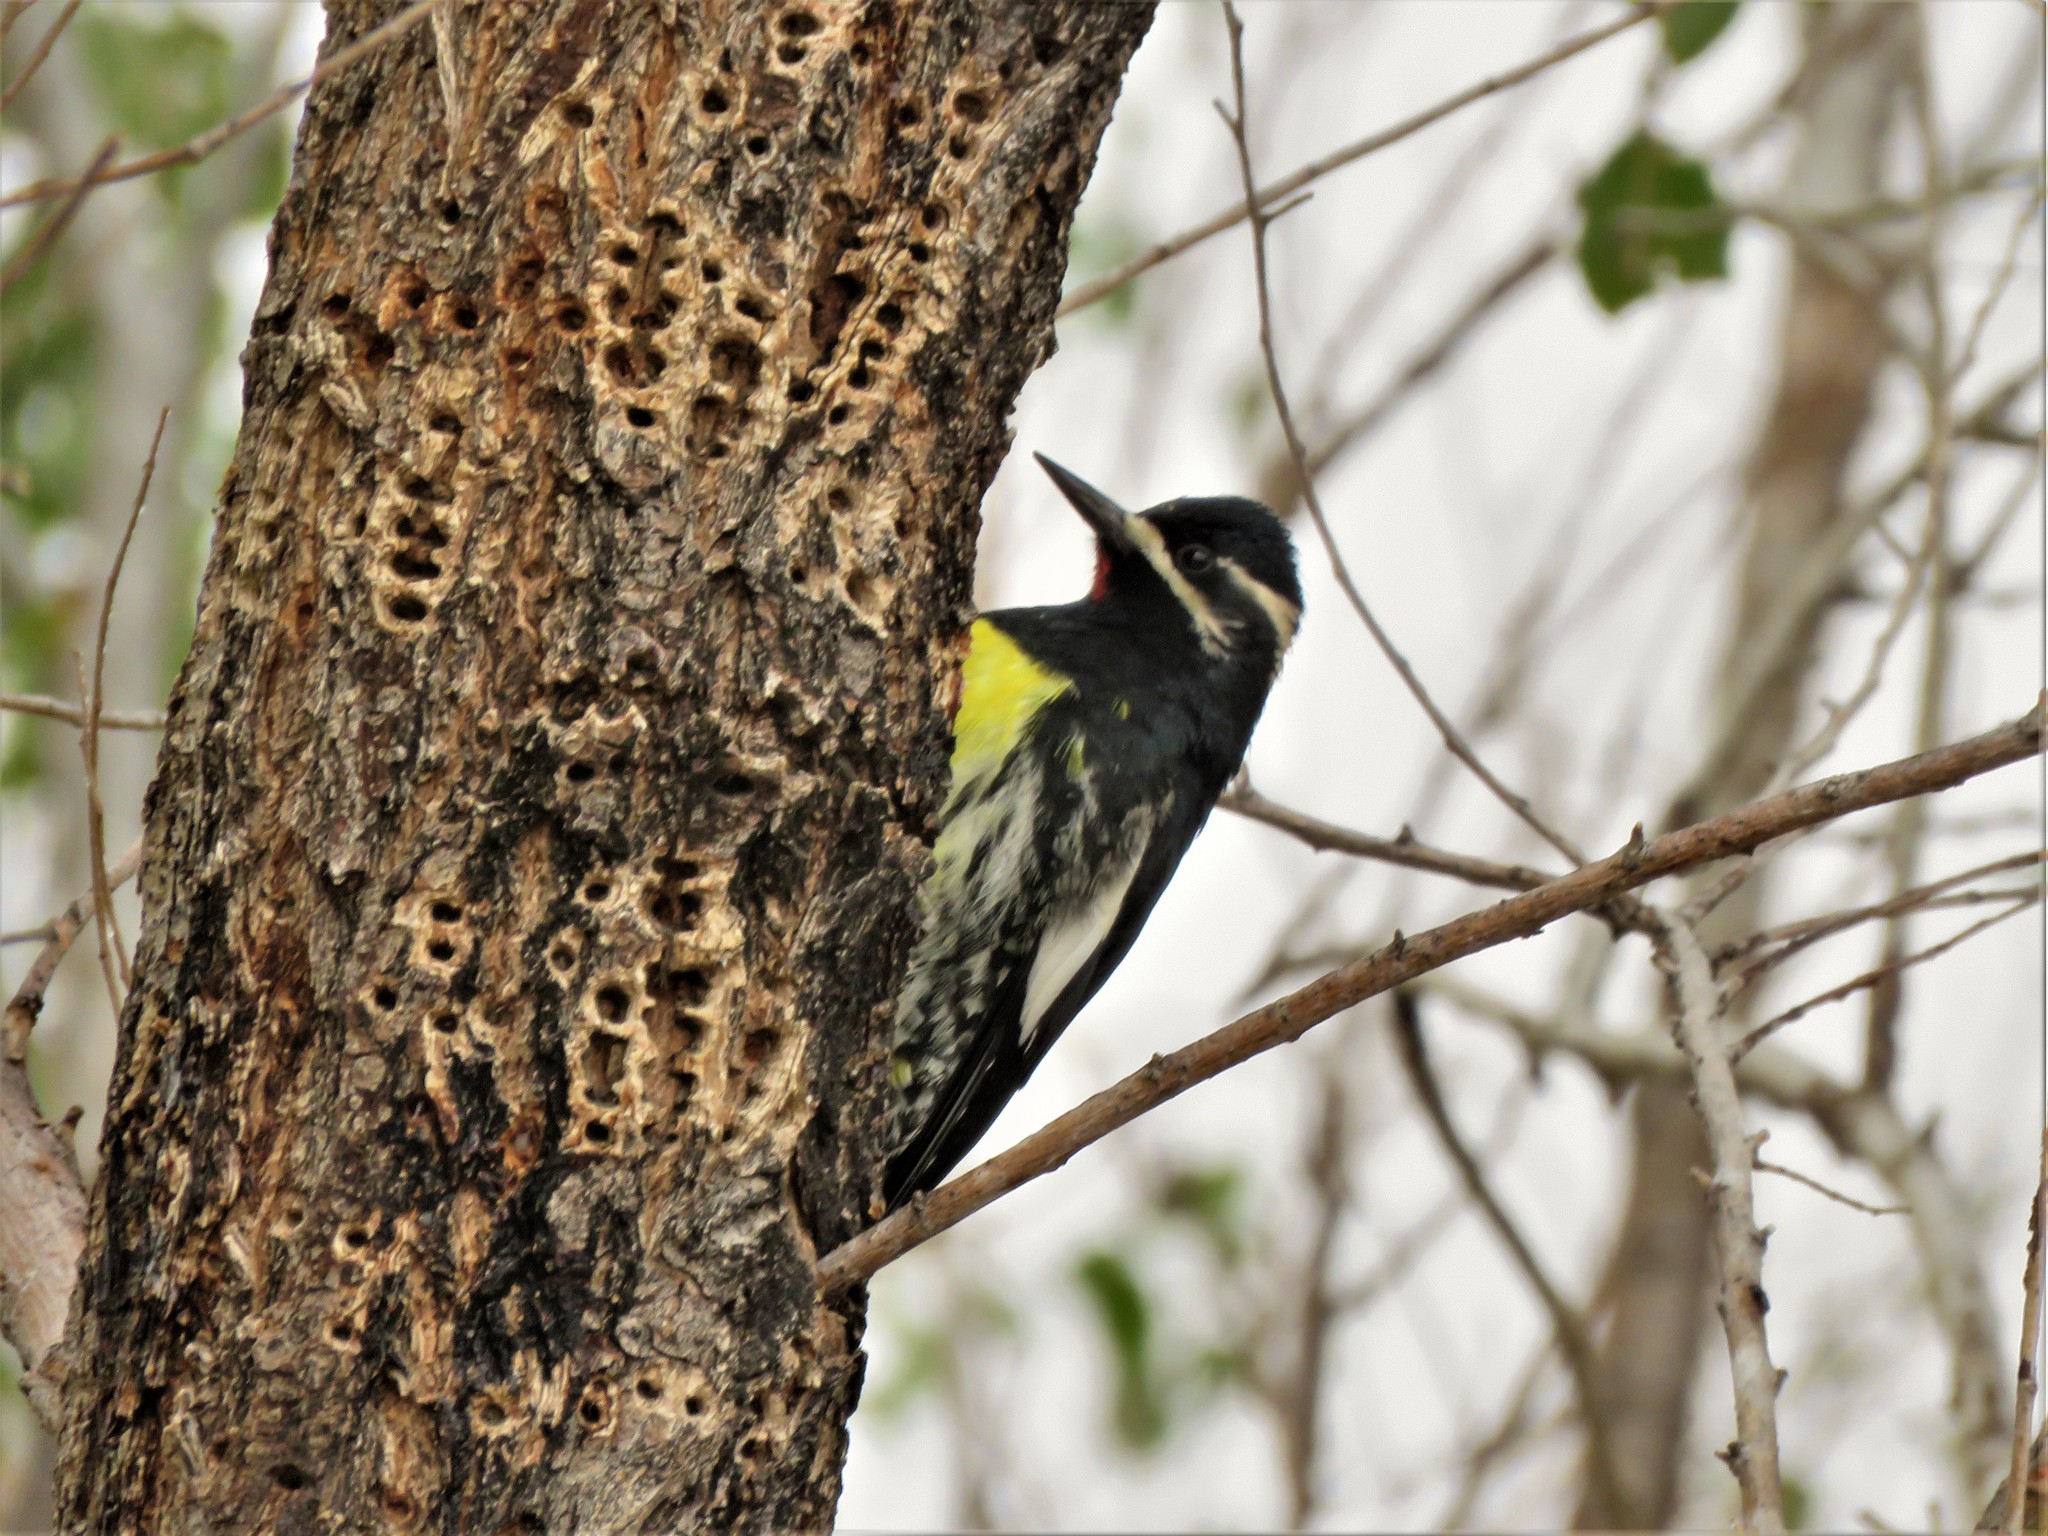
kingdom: Animalia
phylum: Chordata
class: Aves
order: Piciformes
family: Picidae
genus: Sphyrapicus
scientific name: Sphyrapicus thyroideus
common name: Williamson's sapsucker
